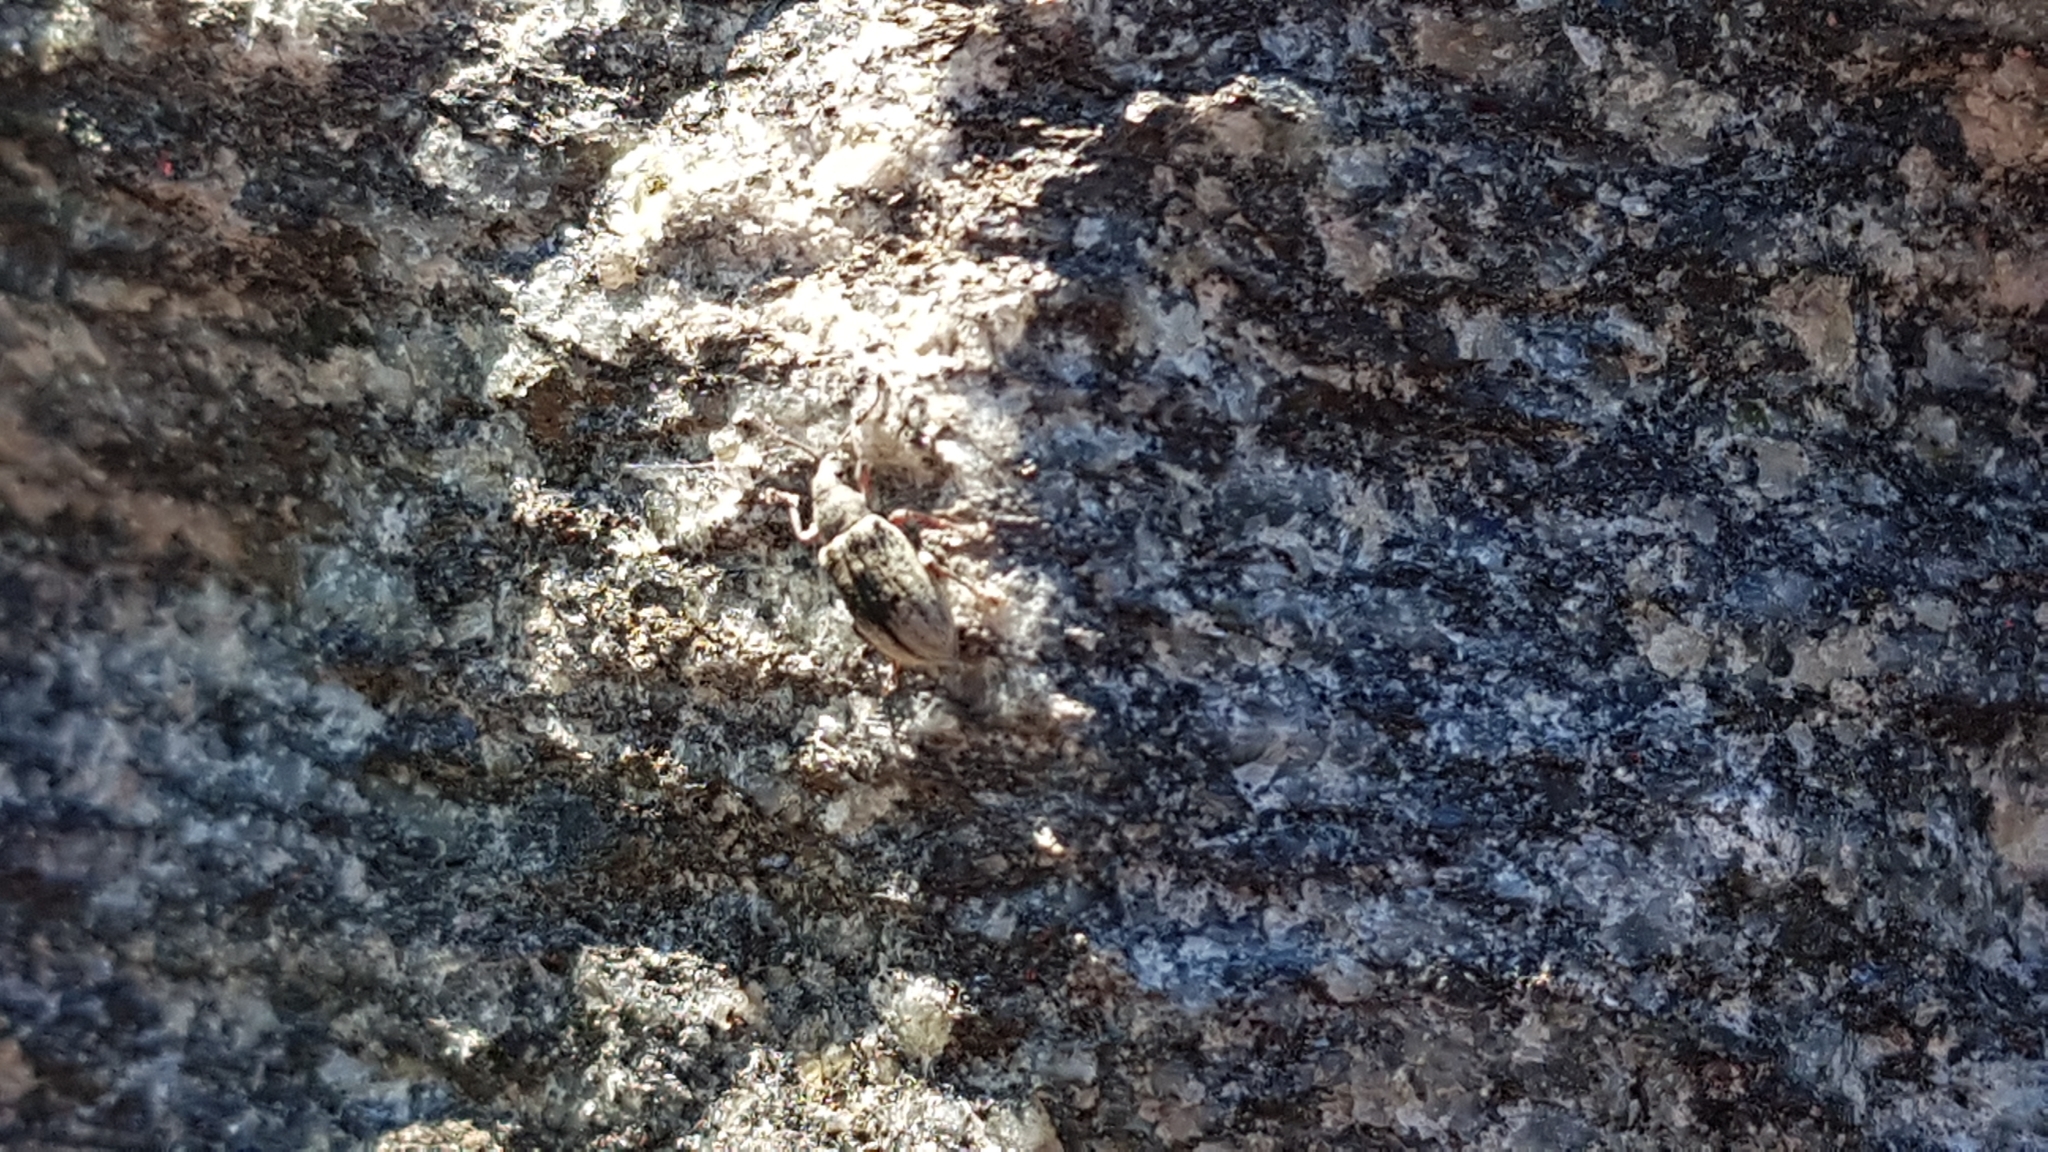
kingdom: Animalia
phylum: Arthropoda
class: Insecta
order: Coleoptera
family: Curculionidae
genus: Phyllobius
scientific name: Phyllobius pyri
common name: Common leaf weevil
